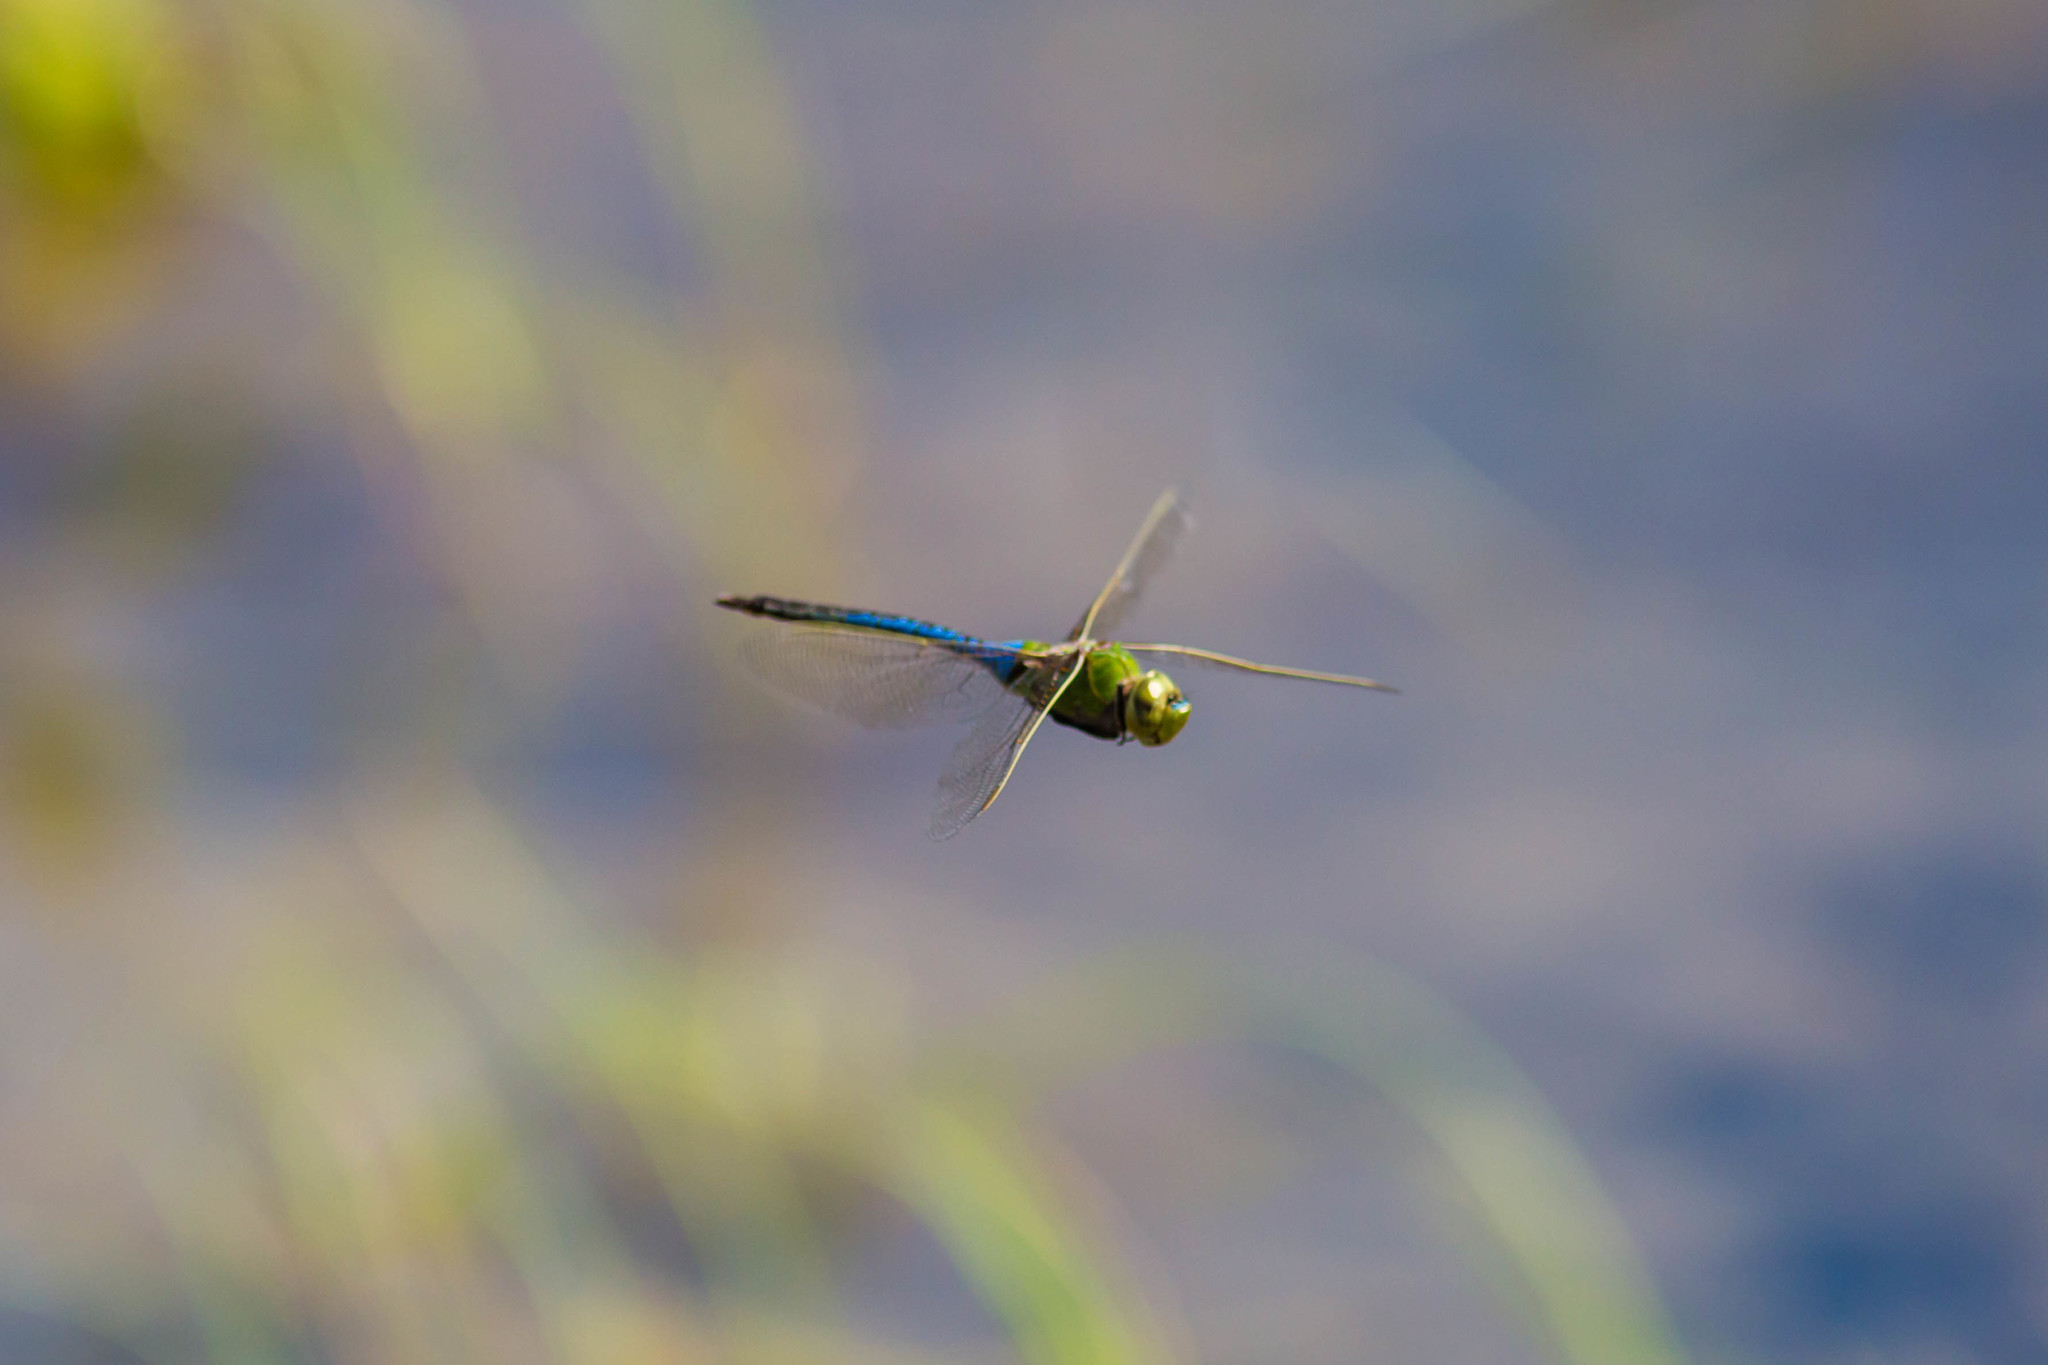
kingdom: Animalia
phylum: Arthropoda
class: Insecta
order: Odonata
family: Aeshnidae
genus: Anax
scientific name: Anax junius
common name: Common green darner
